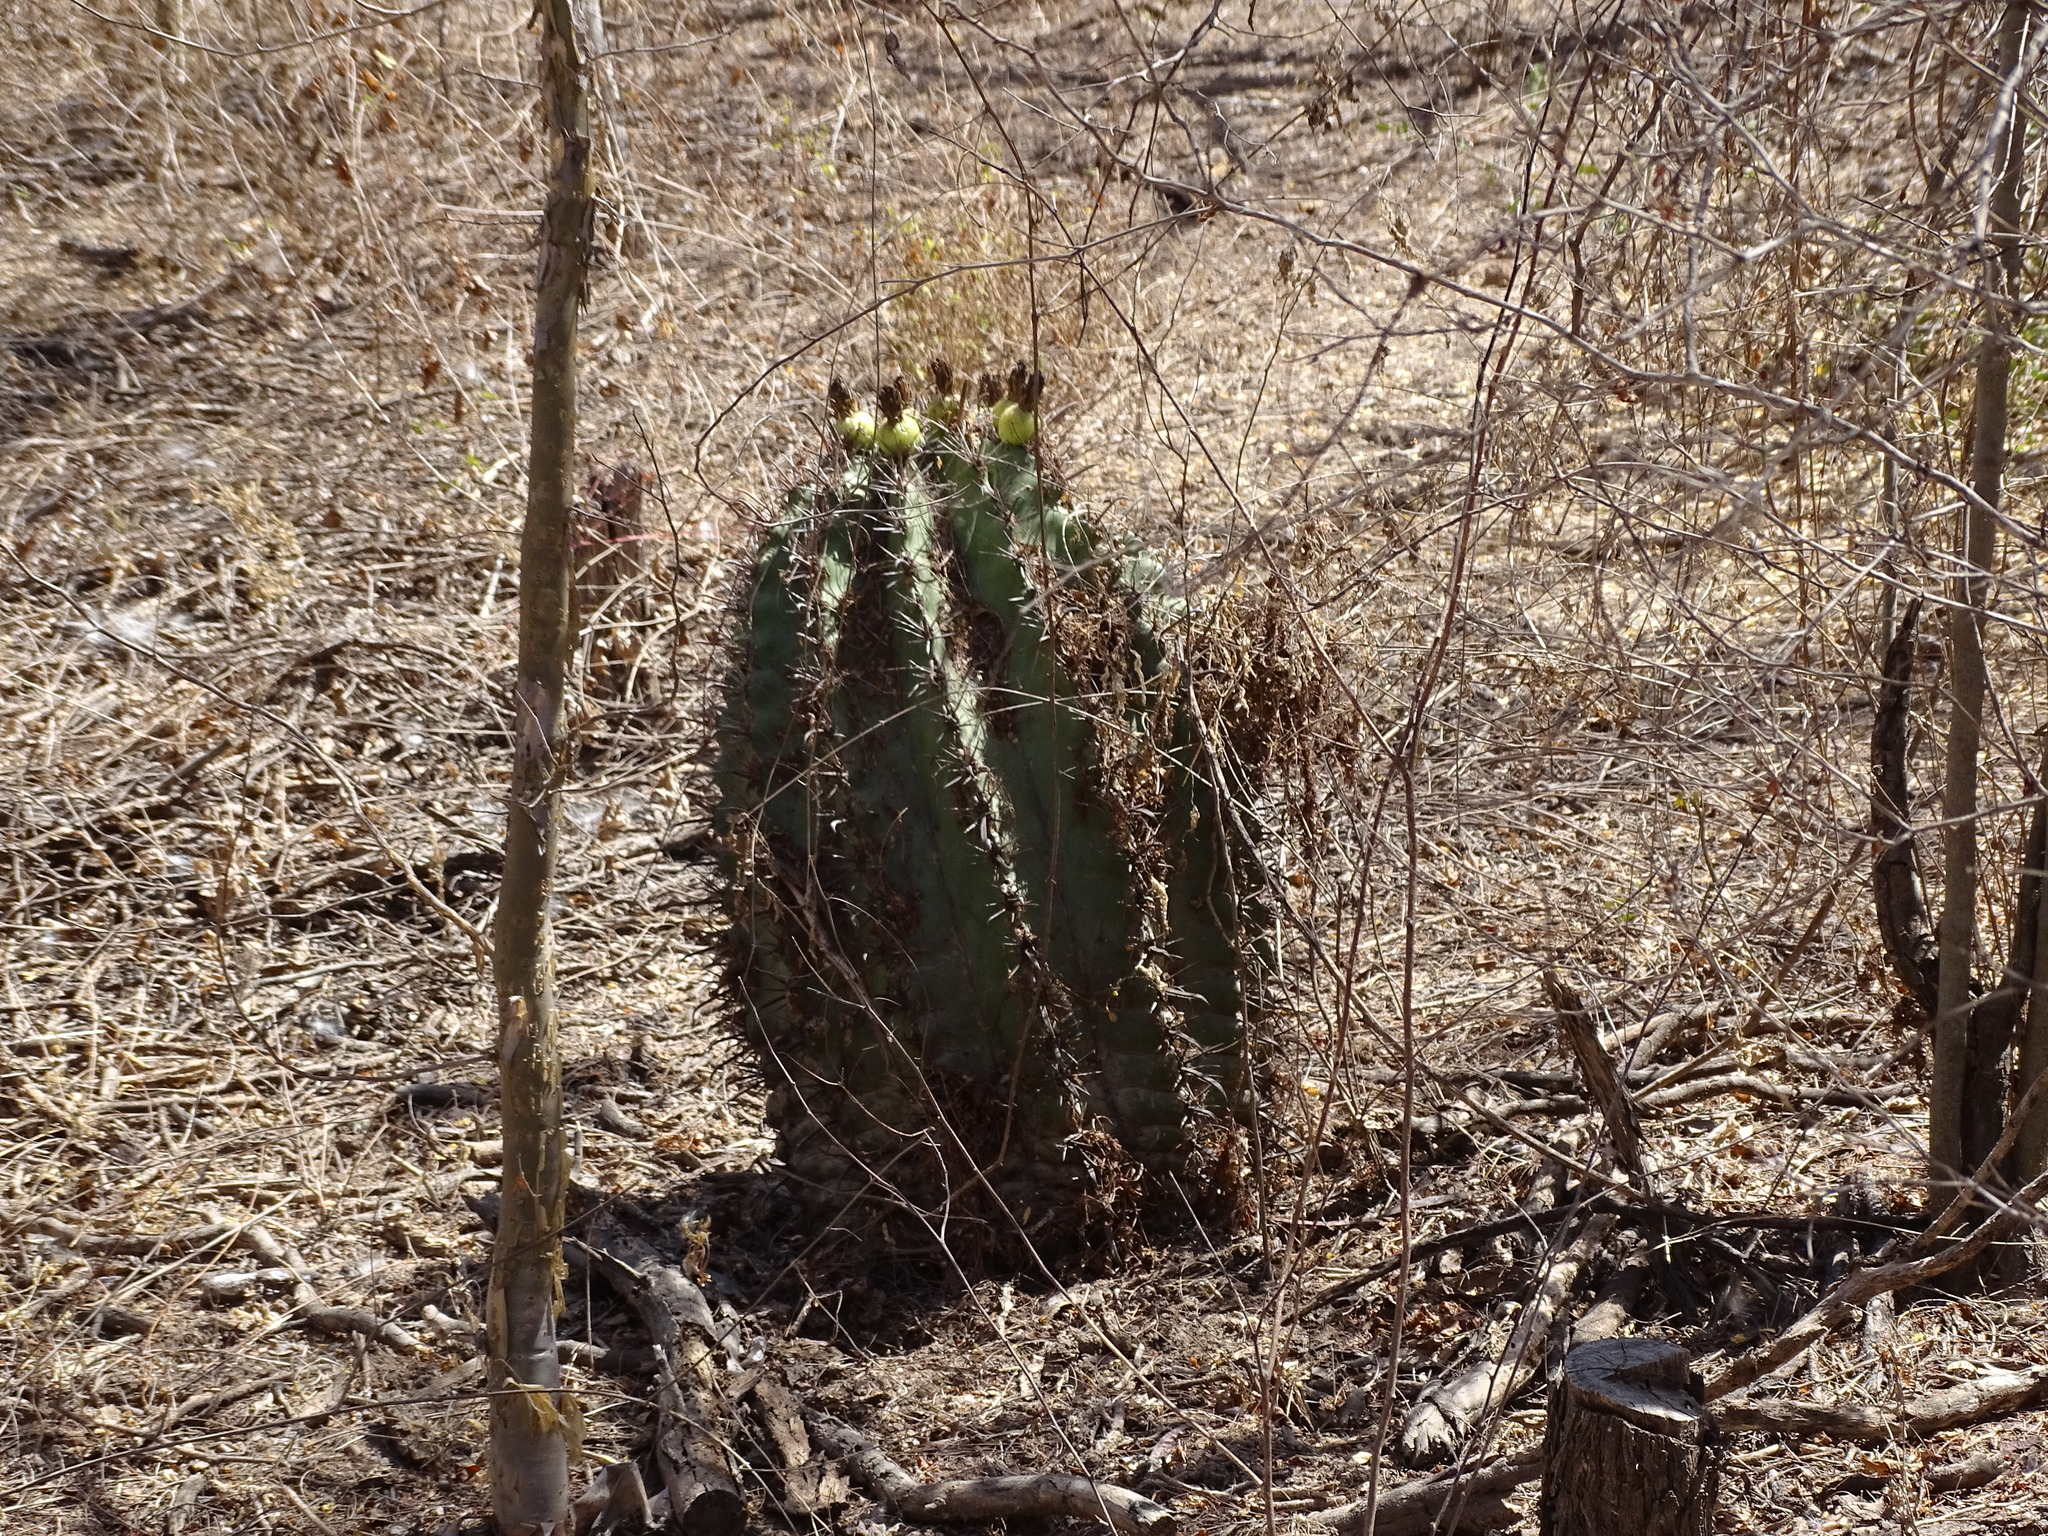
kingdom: Plantae
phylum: Tracheophyta
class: Magnoliopsida
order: Caryophyllales
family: Cactaceae
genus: Ferocactus
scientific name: Ferocactus wislizeni
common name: Candy barrel cactus
